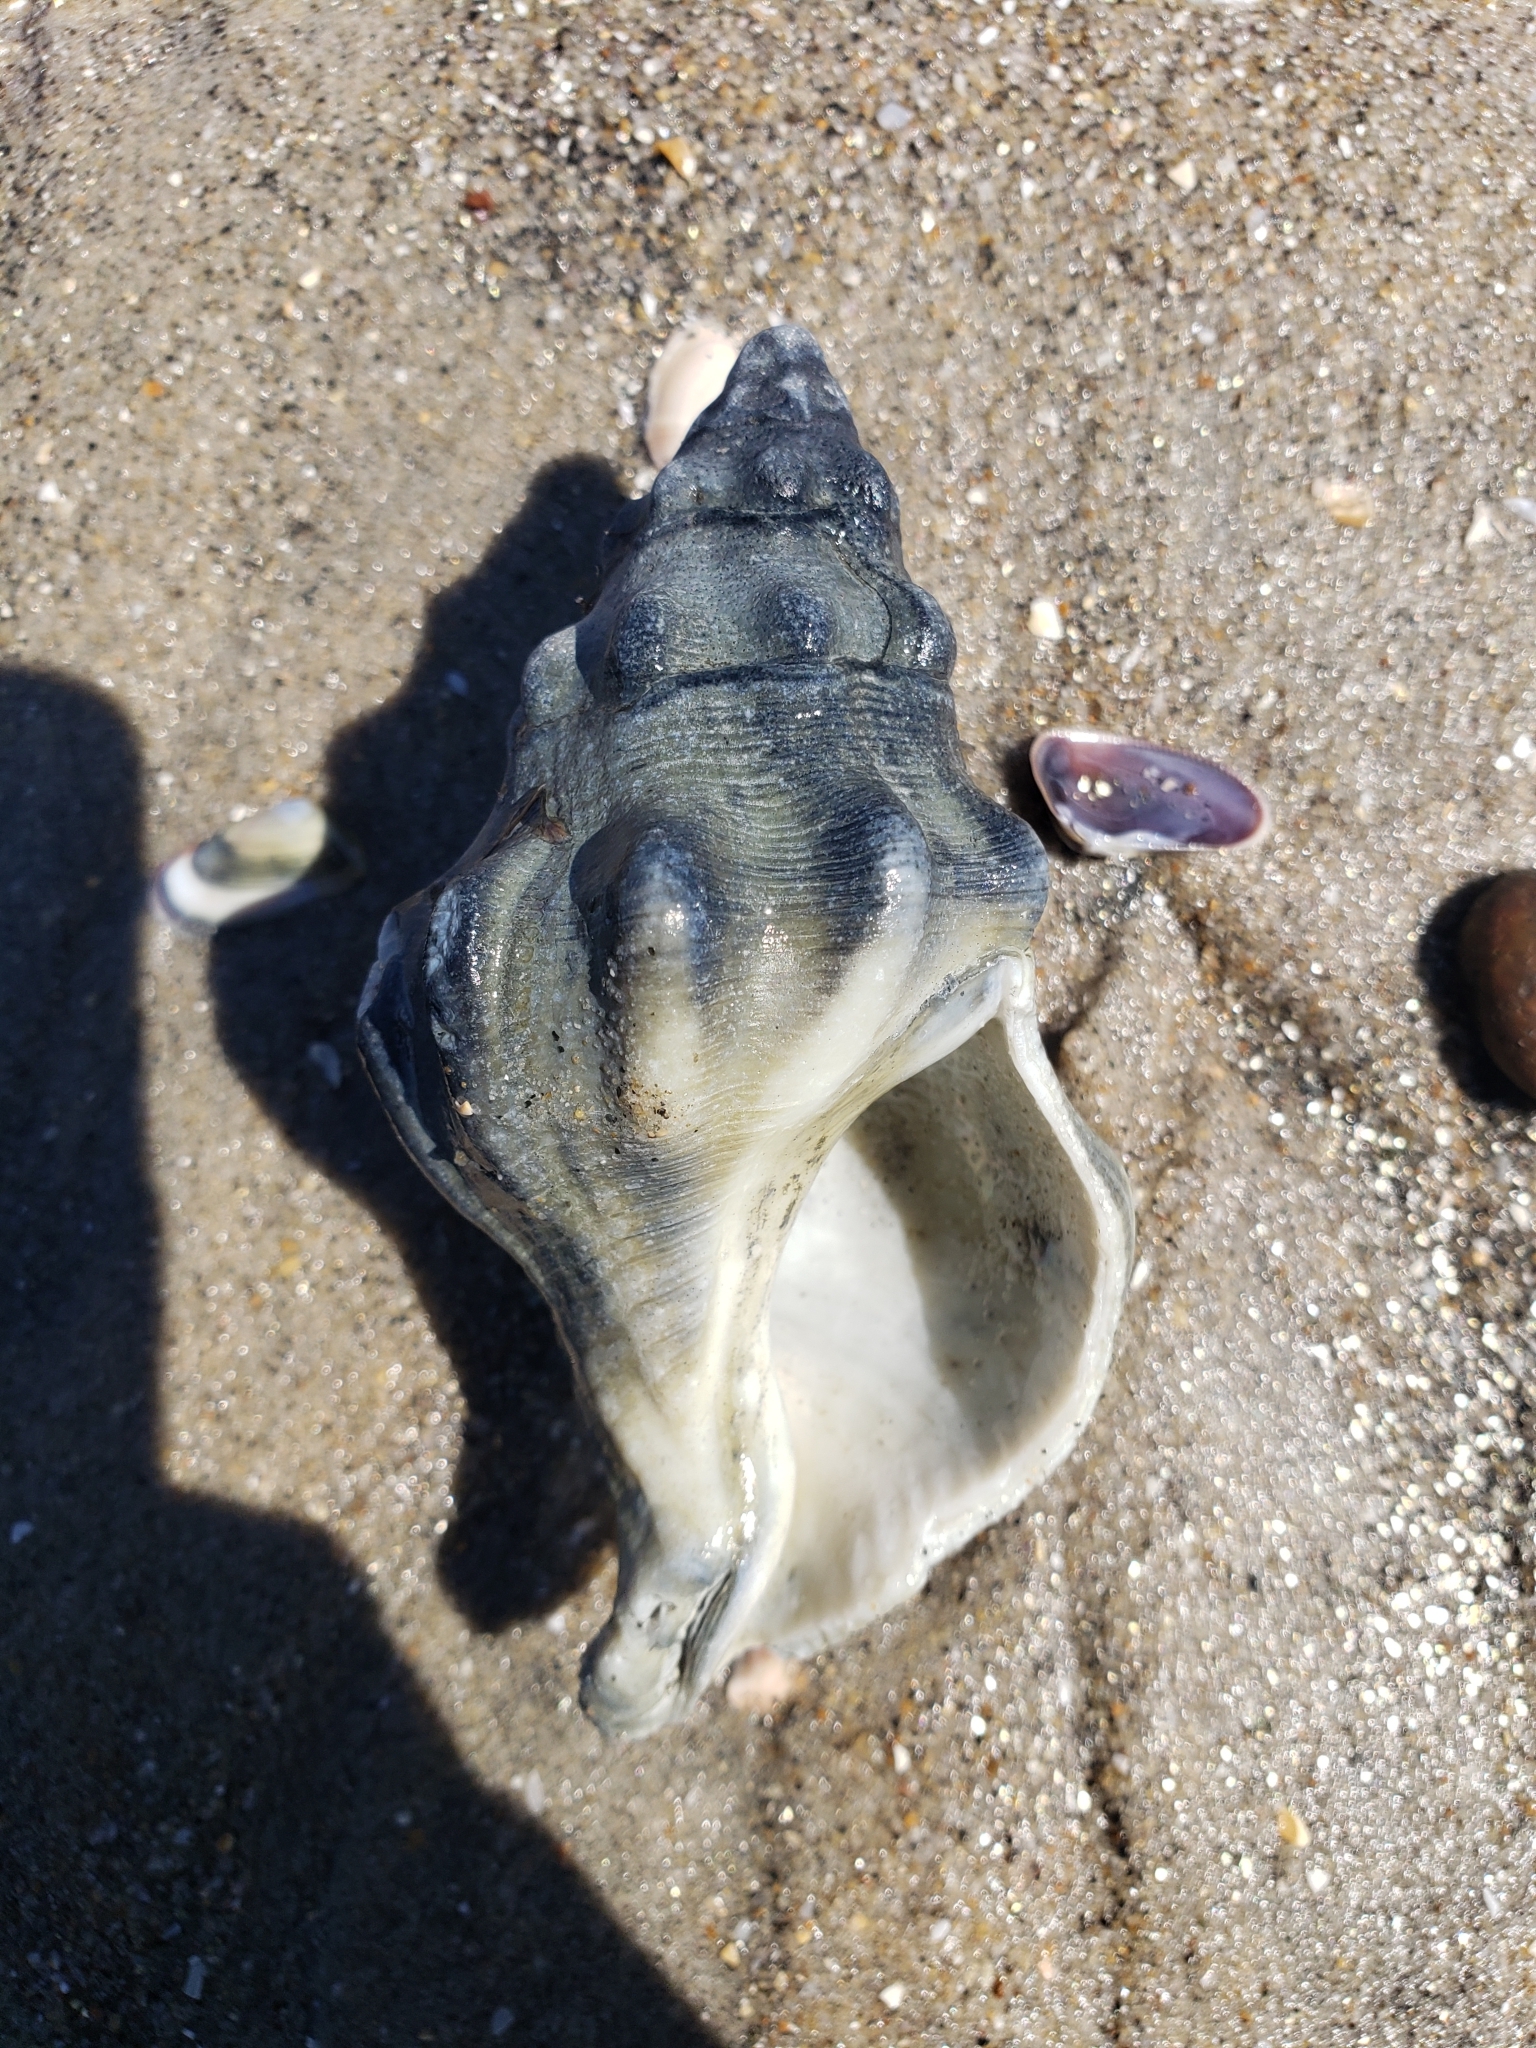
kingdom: Animalia
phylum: Mollusca
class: Gastropoda
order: Neogastropoda
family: Austrosiphonidae
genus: Kelletia
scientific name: Kelletia kelletii
